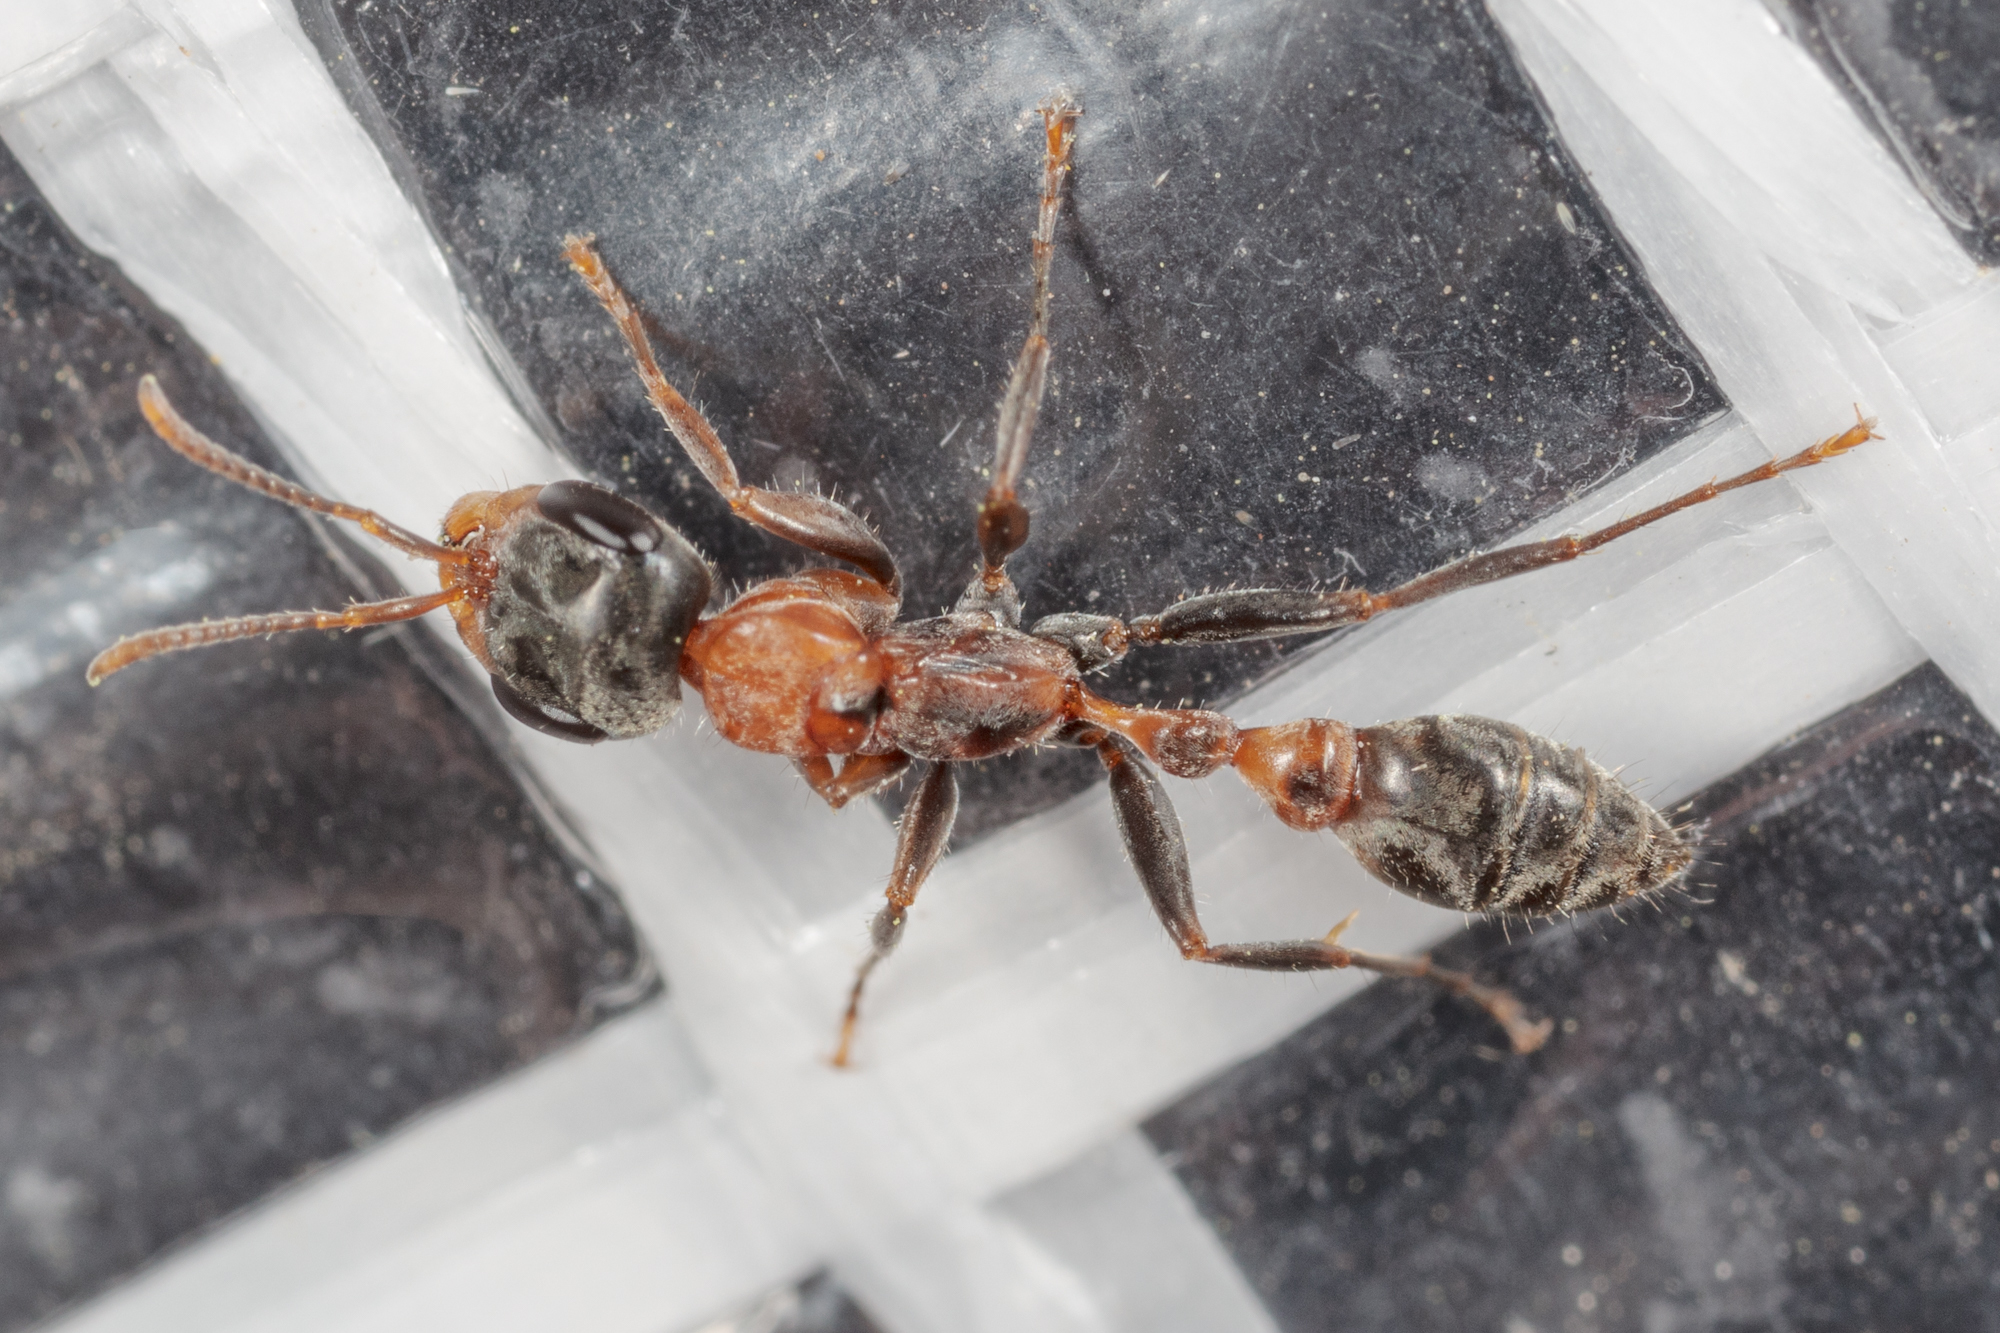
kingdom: Animalia
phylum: Arthropoda
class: Insecta
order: Hymenoptera
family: Formicidae
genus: Pseudomyrmex
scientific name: Pseudomyrmex gracilis
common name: Graceful twig ant
